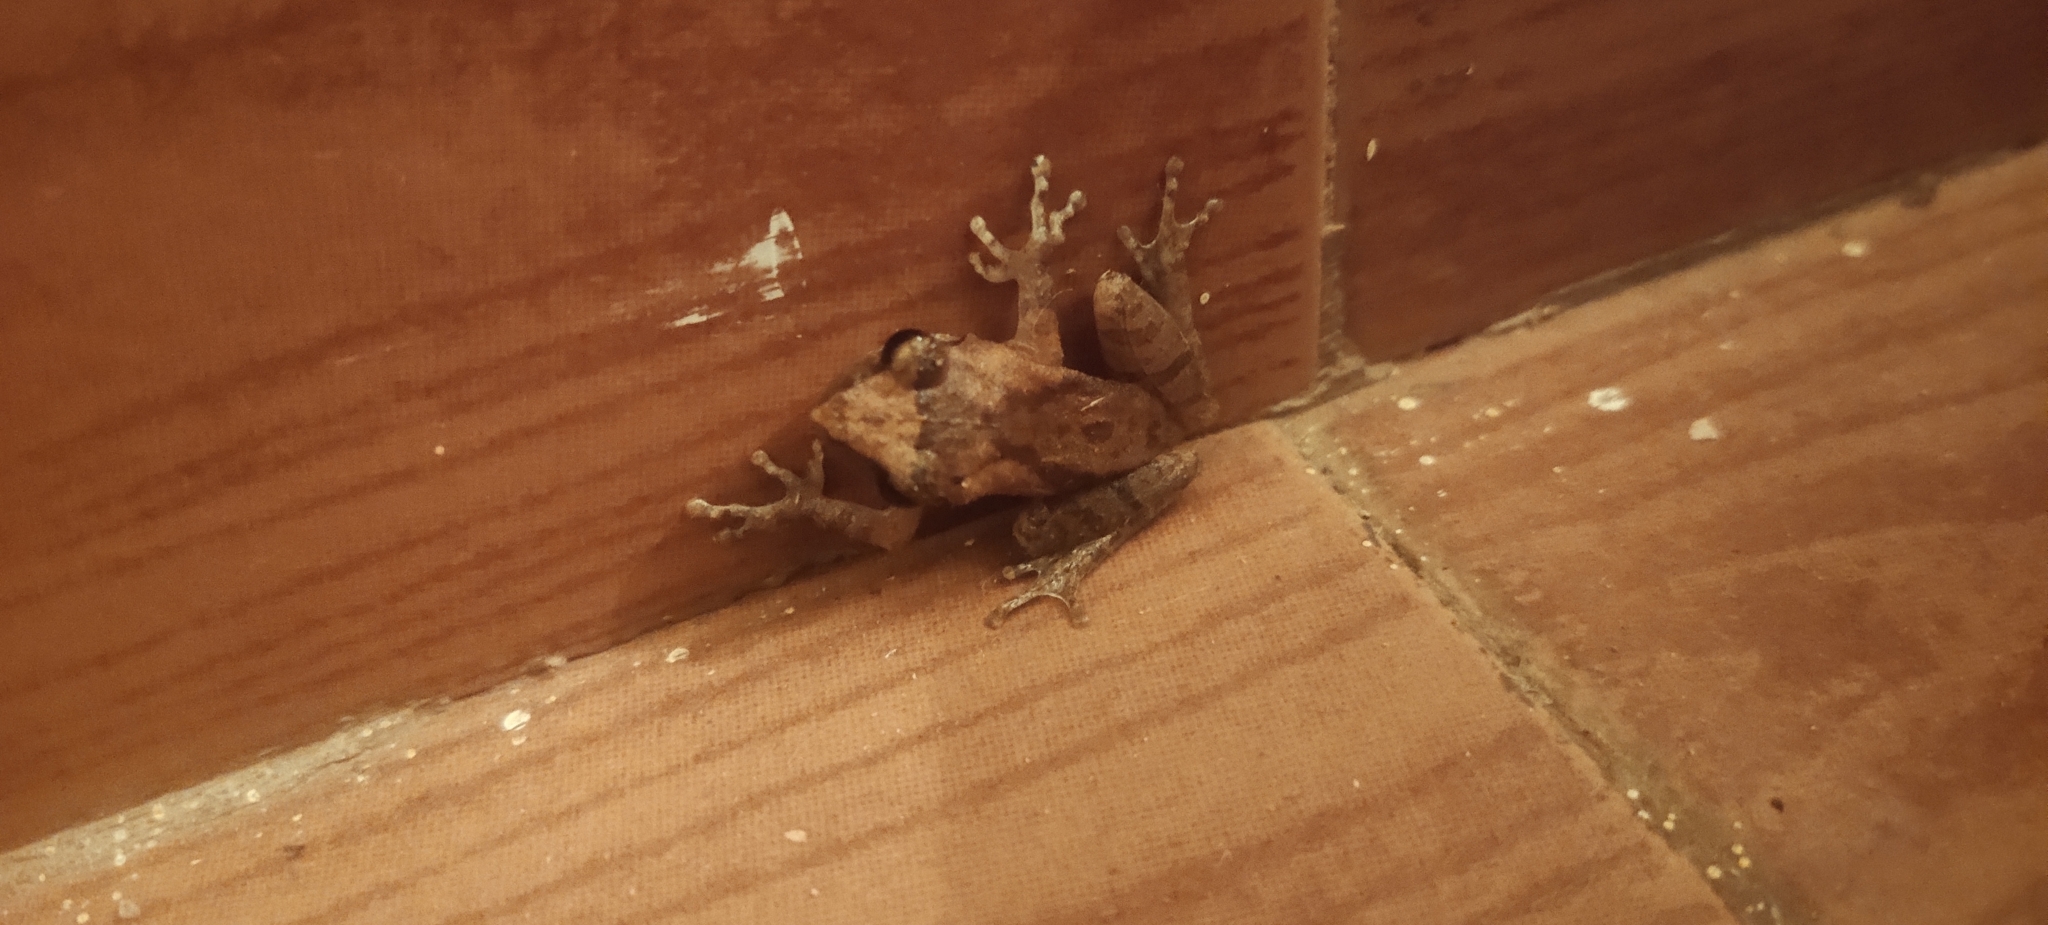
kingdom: Animalia
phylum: Chordata
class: Amphibia
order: Anura
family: Rhacophoridae
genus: Pseudophilautus
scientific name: Pseudophilautus wynaadensis
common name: Dark-eared bush frog
